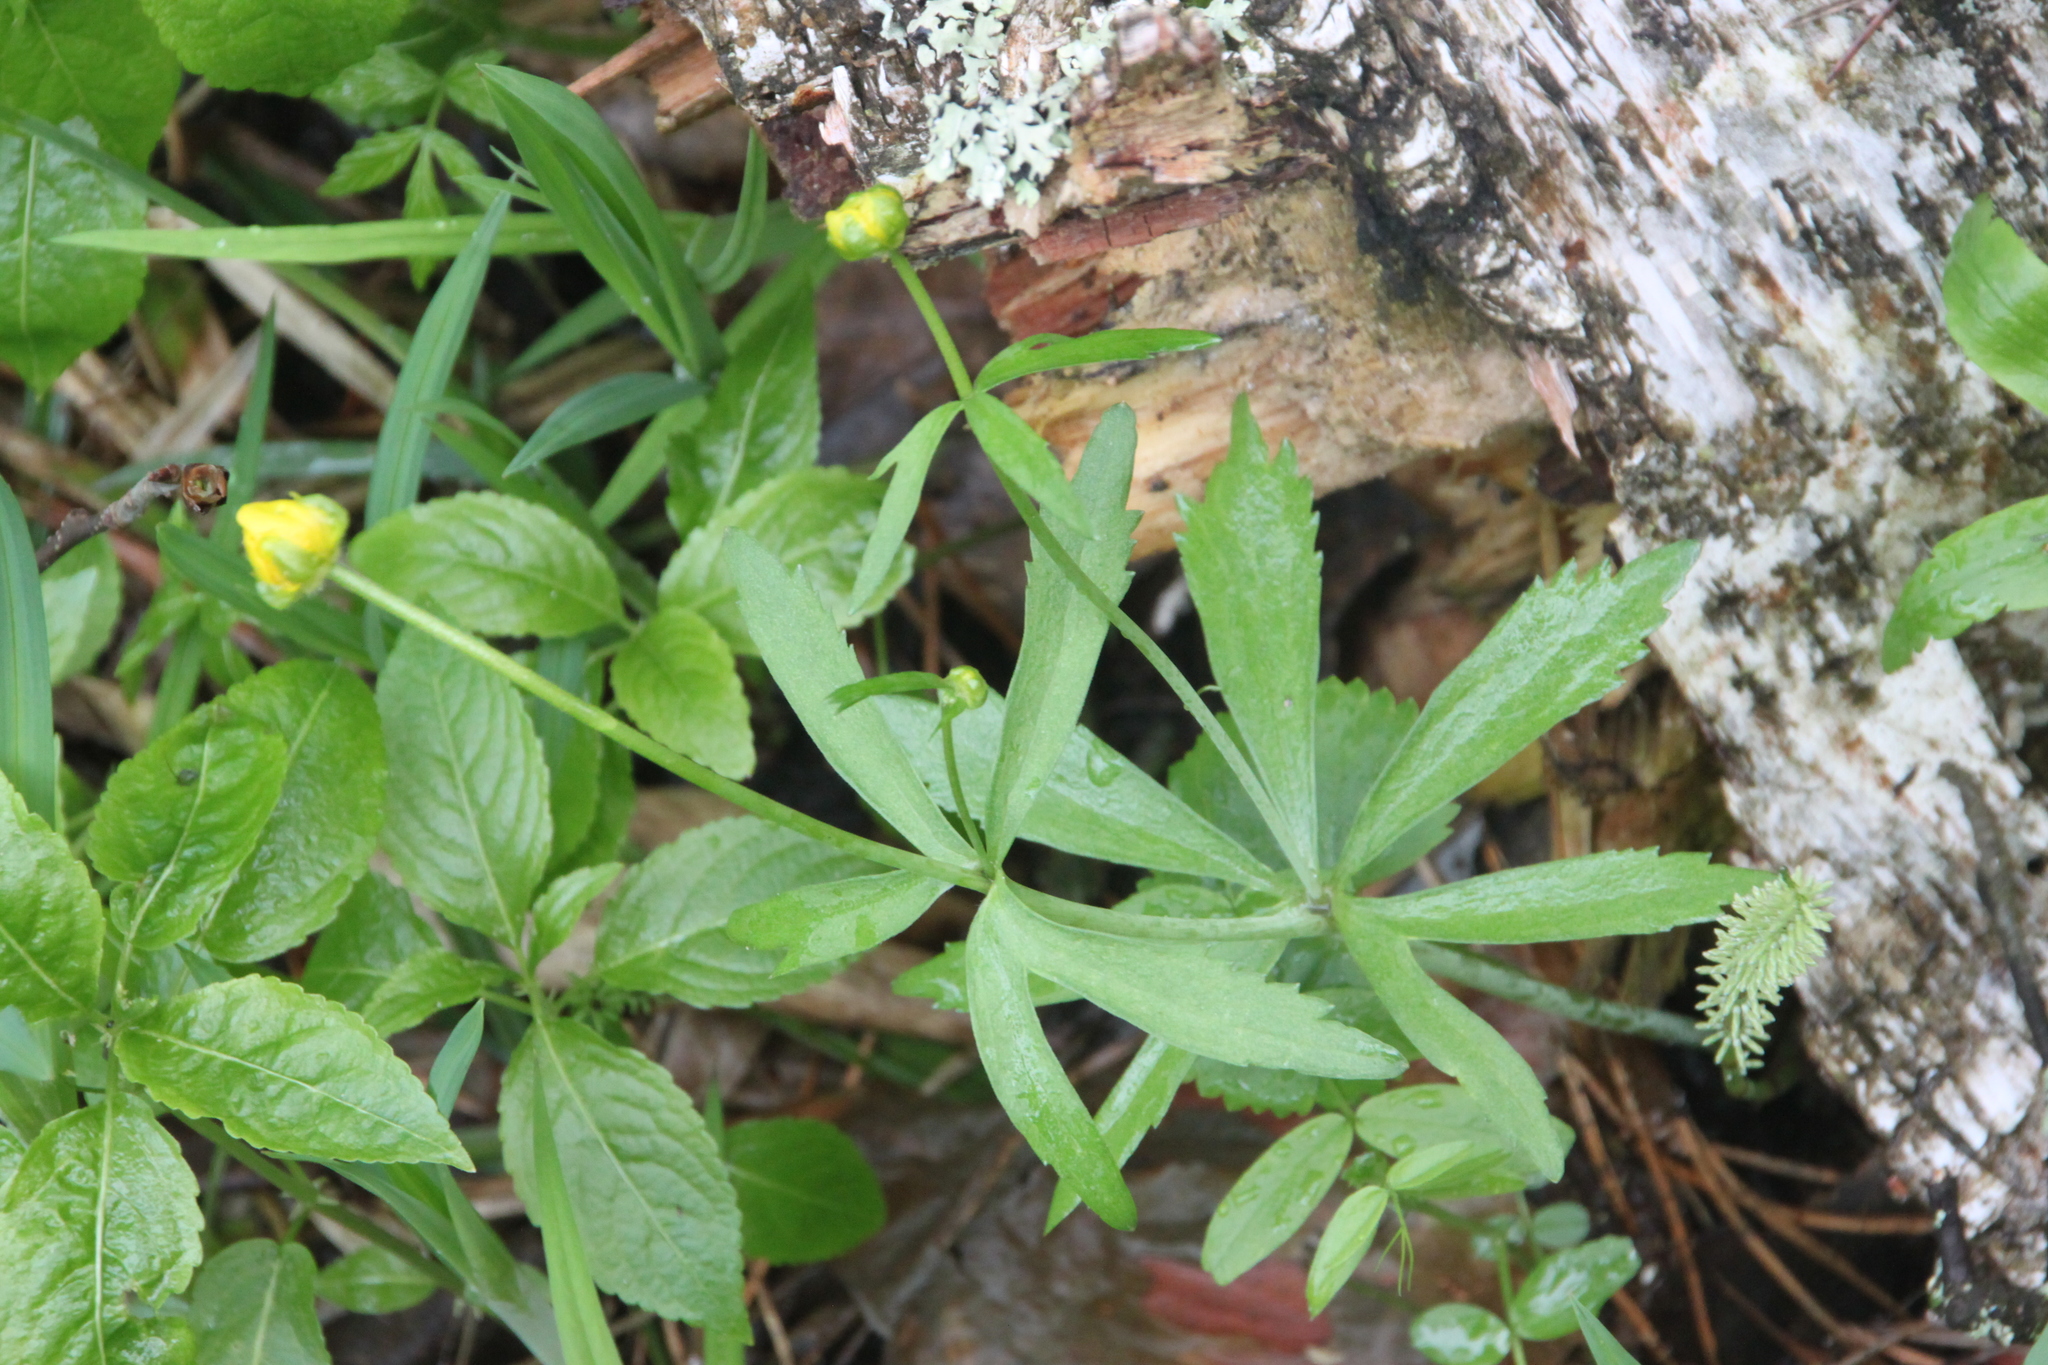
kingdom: Plantae
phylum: Tracheophyta
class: Magnoliopsida
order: Ranunculales
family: Ranunculaceae
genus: Ranunculus
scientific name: Ranunculus cassubicus
